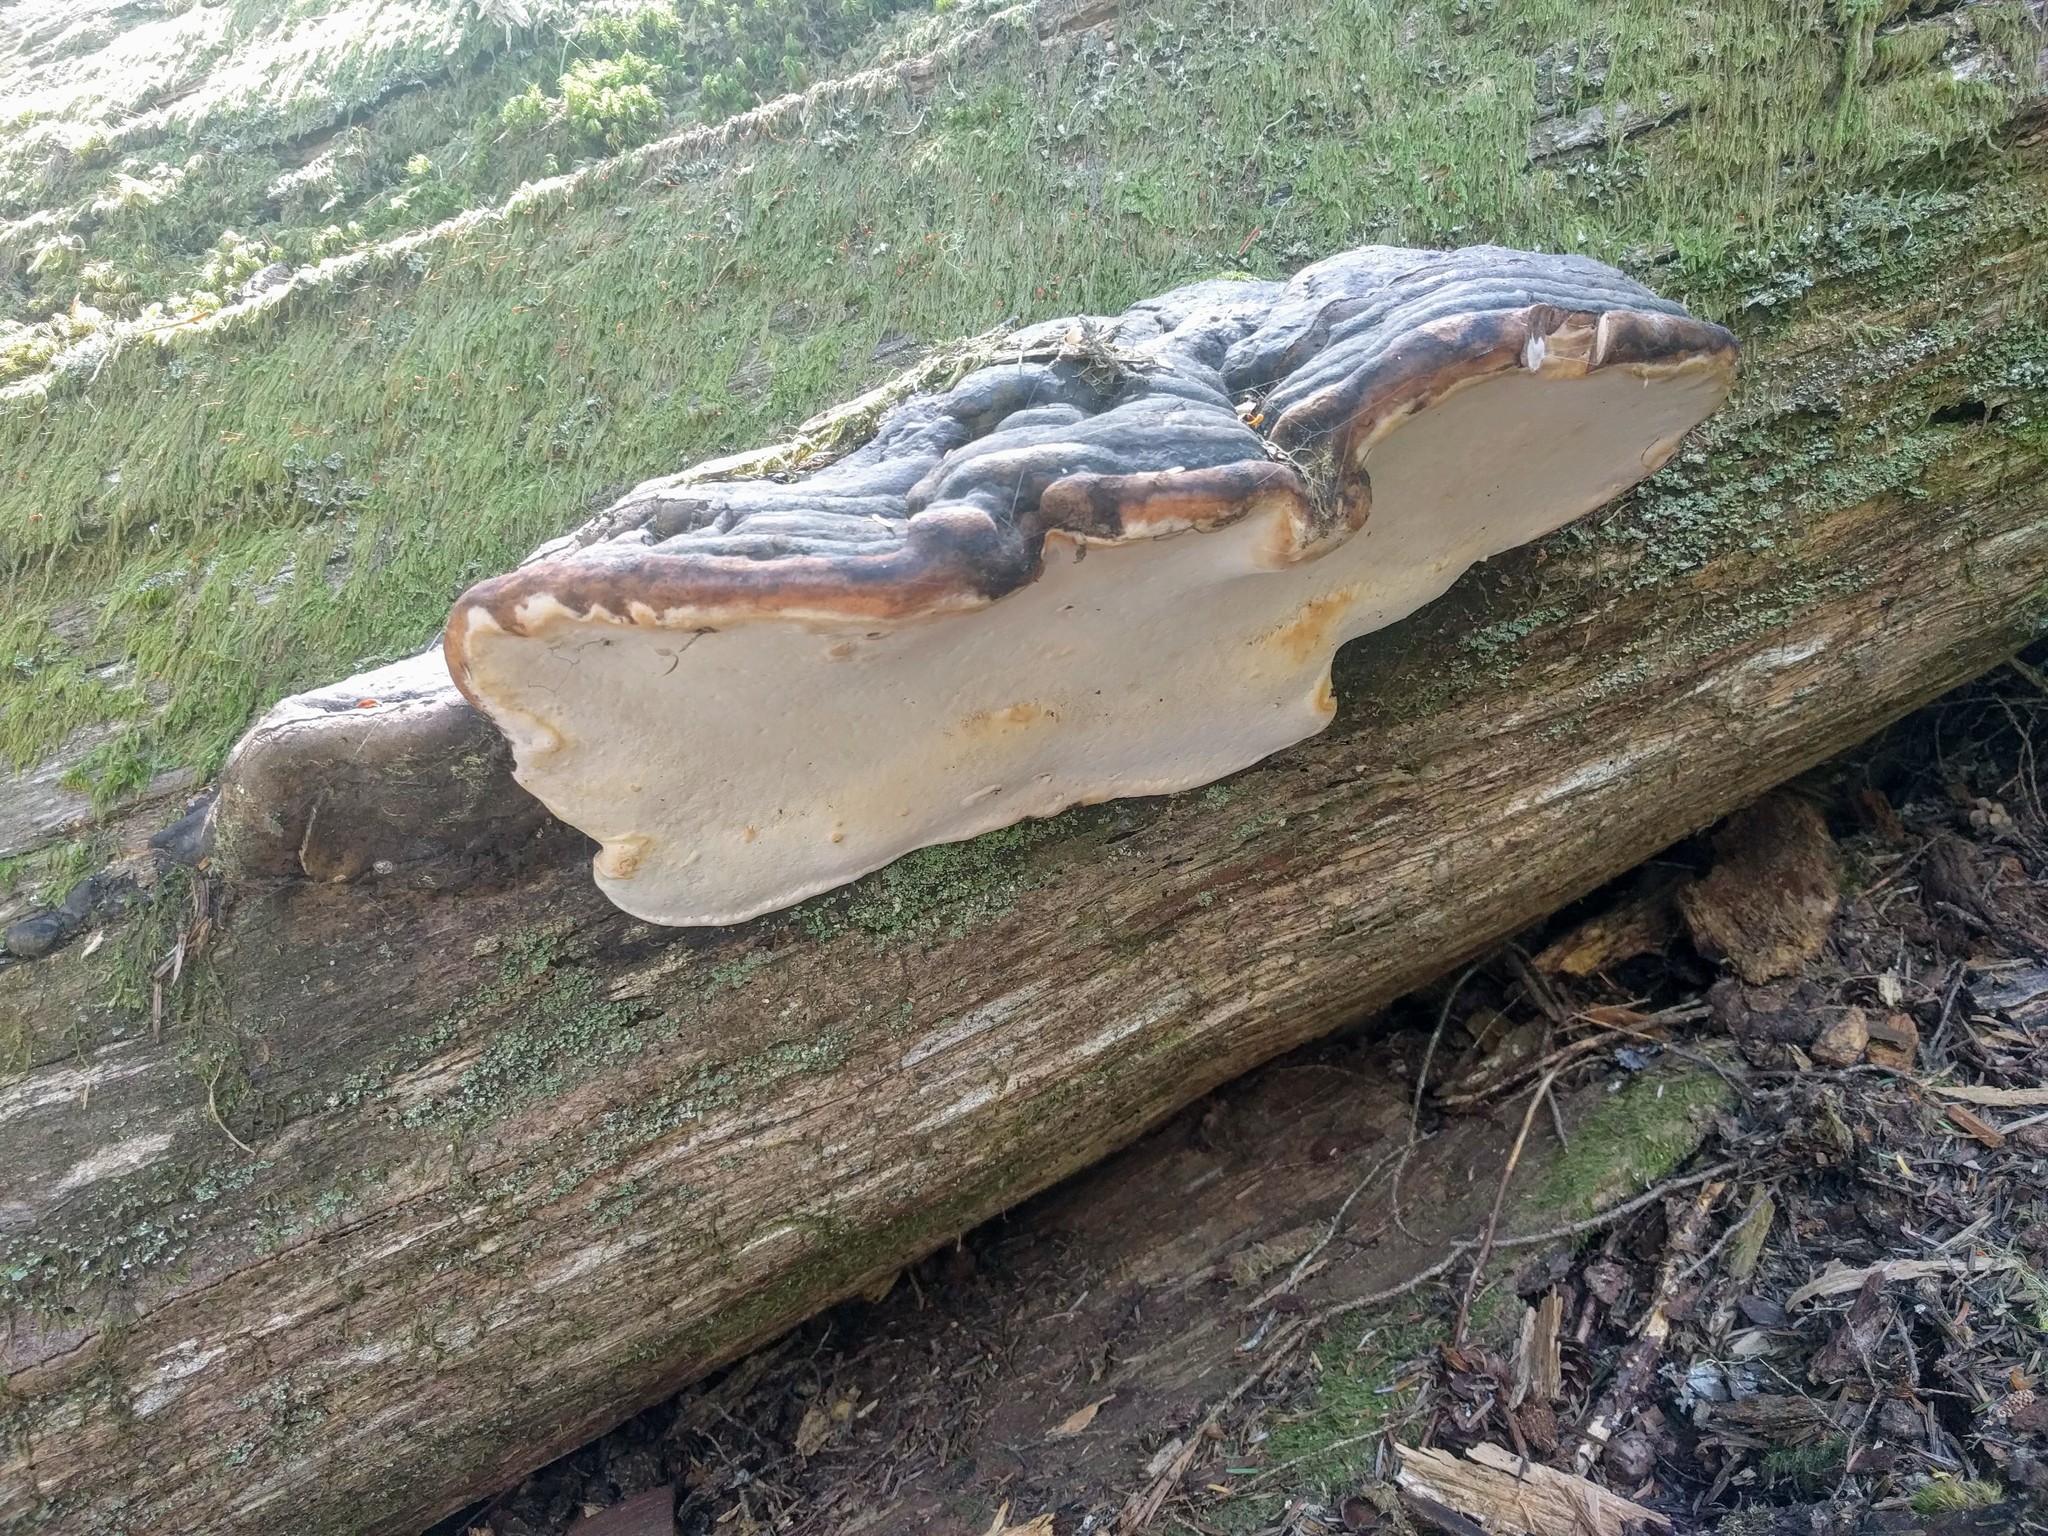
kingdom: Fungi
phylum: Basidiomycota
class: Agaricomycetes
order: Polyporales
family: Fomitopsidaceae
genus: Fomitopsis
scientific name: Fomitopsis mounceae
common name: Northern red belt
